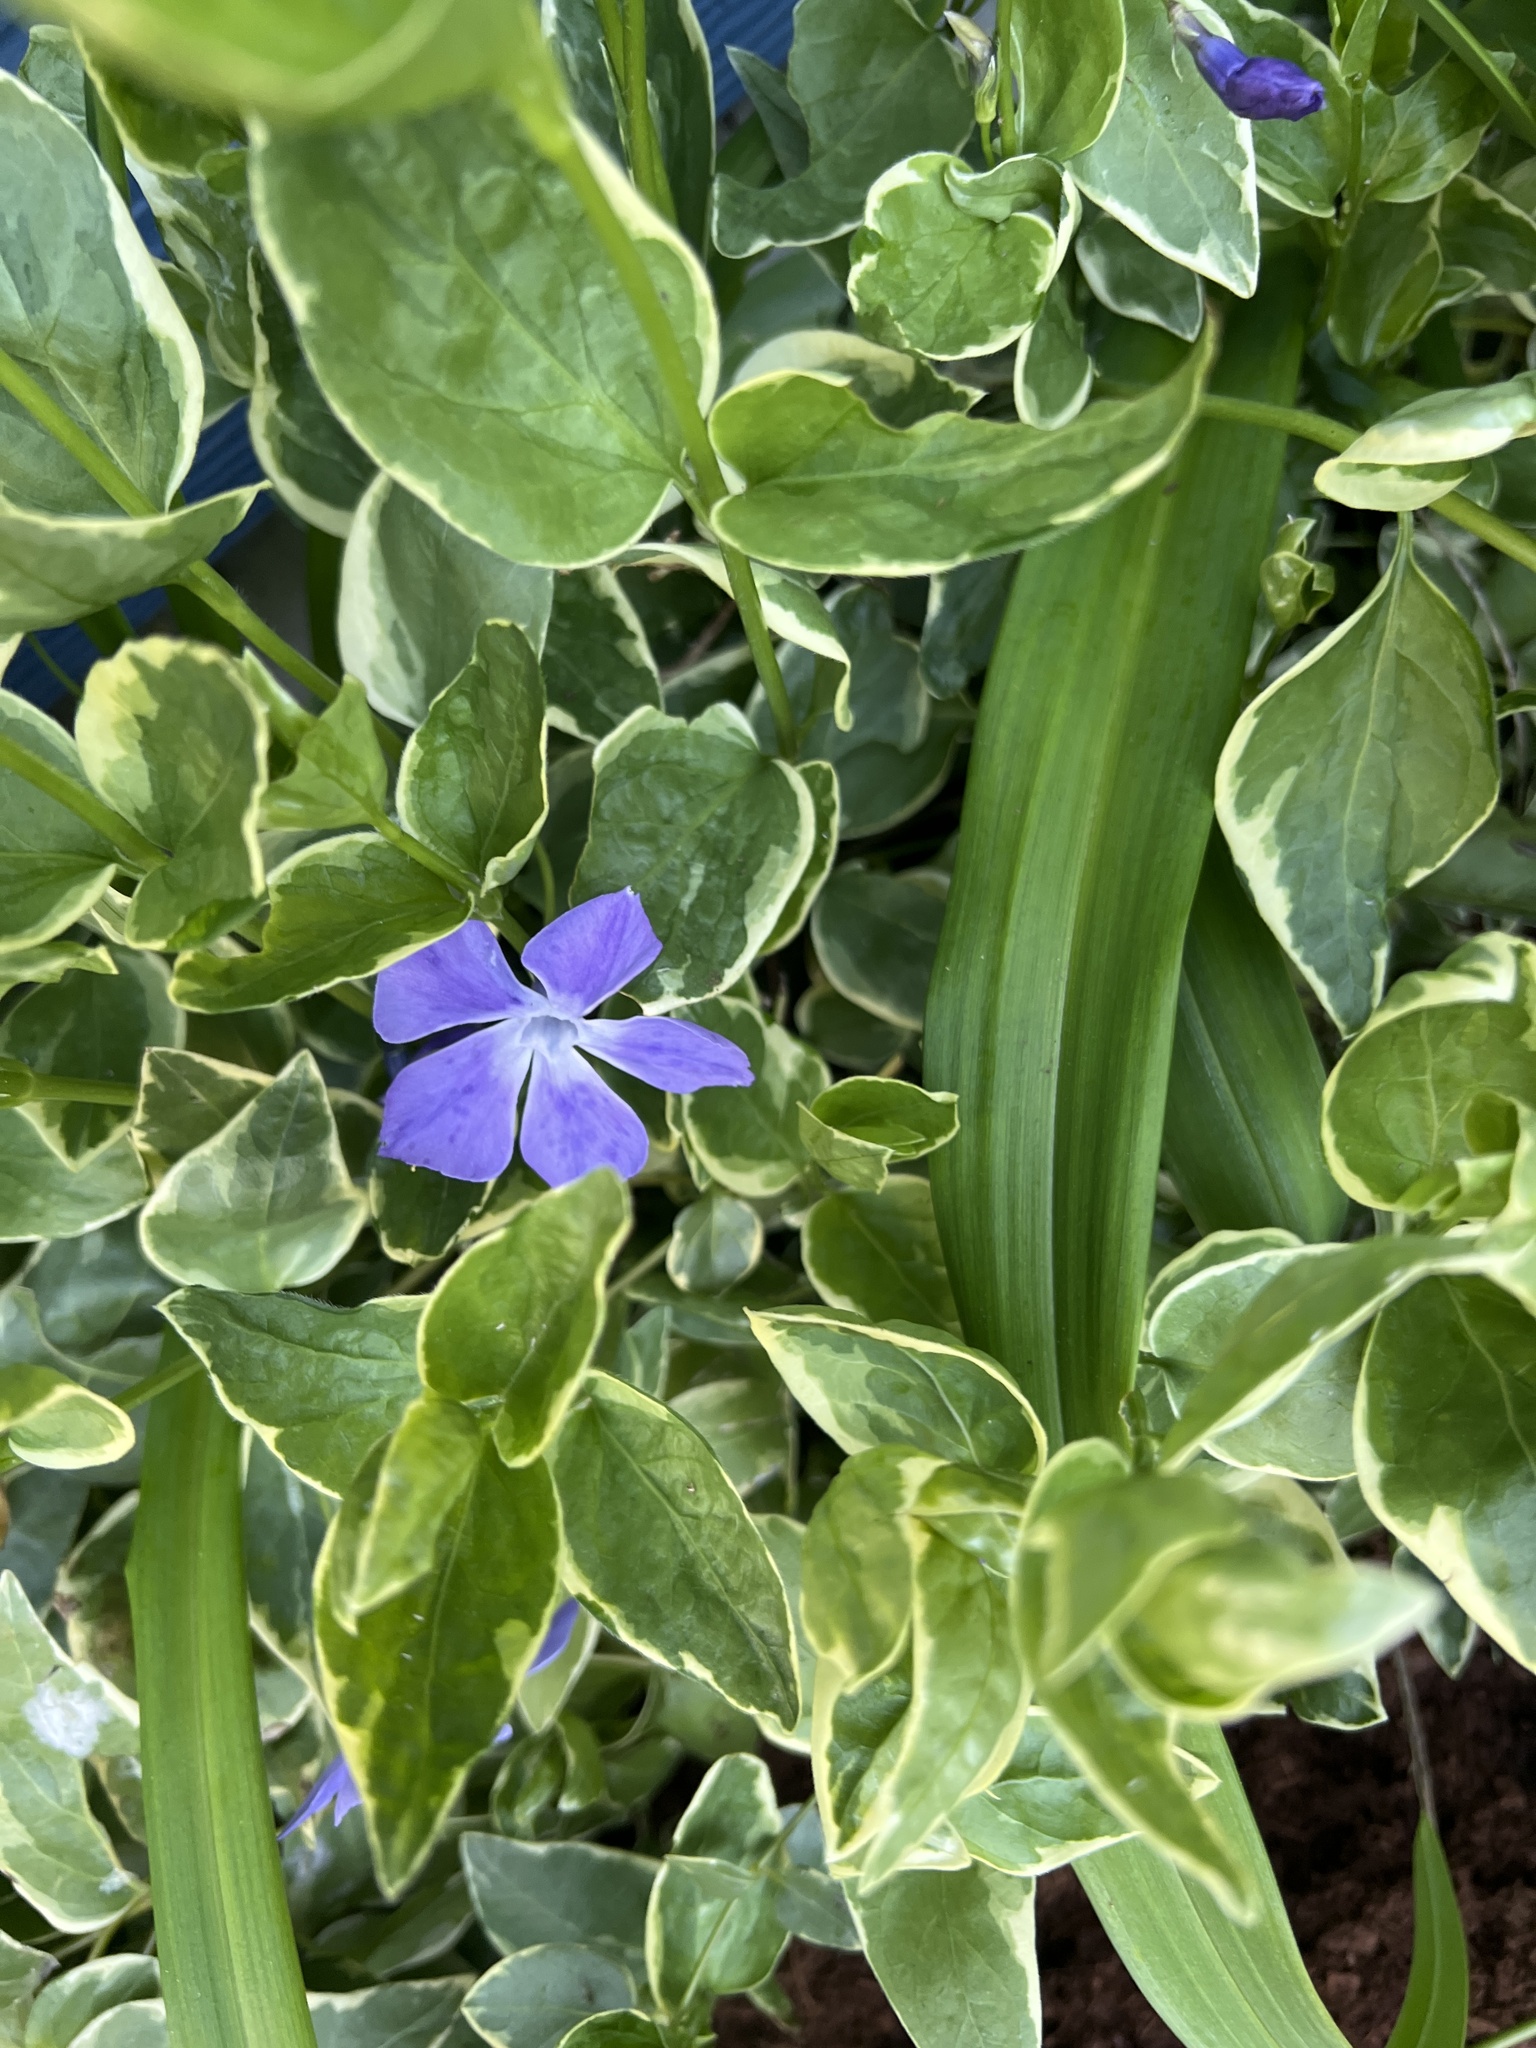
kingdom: Plantae
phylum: Tracheophyta
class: Magnoliopsida
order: Gentianales
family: Apocynaceae
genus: Vinca
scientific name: Vinca major
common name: Greater periwinkle
